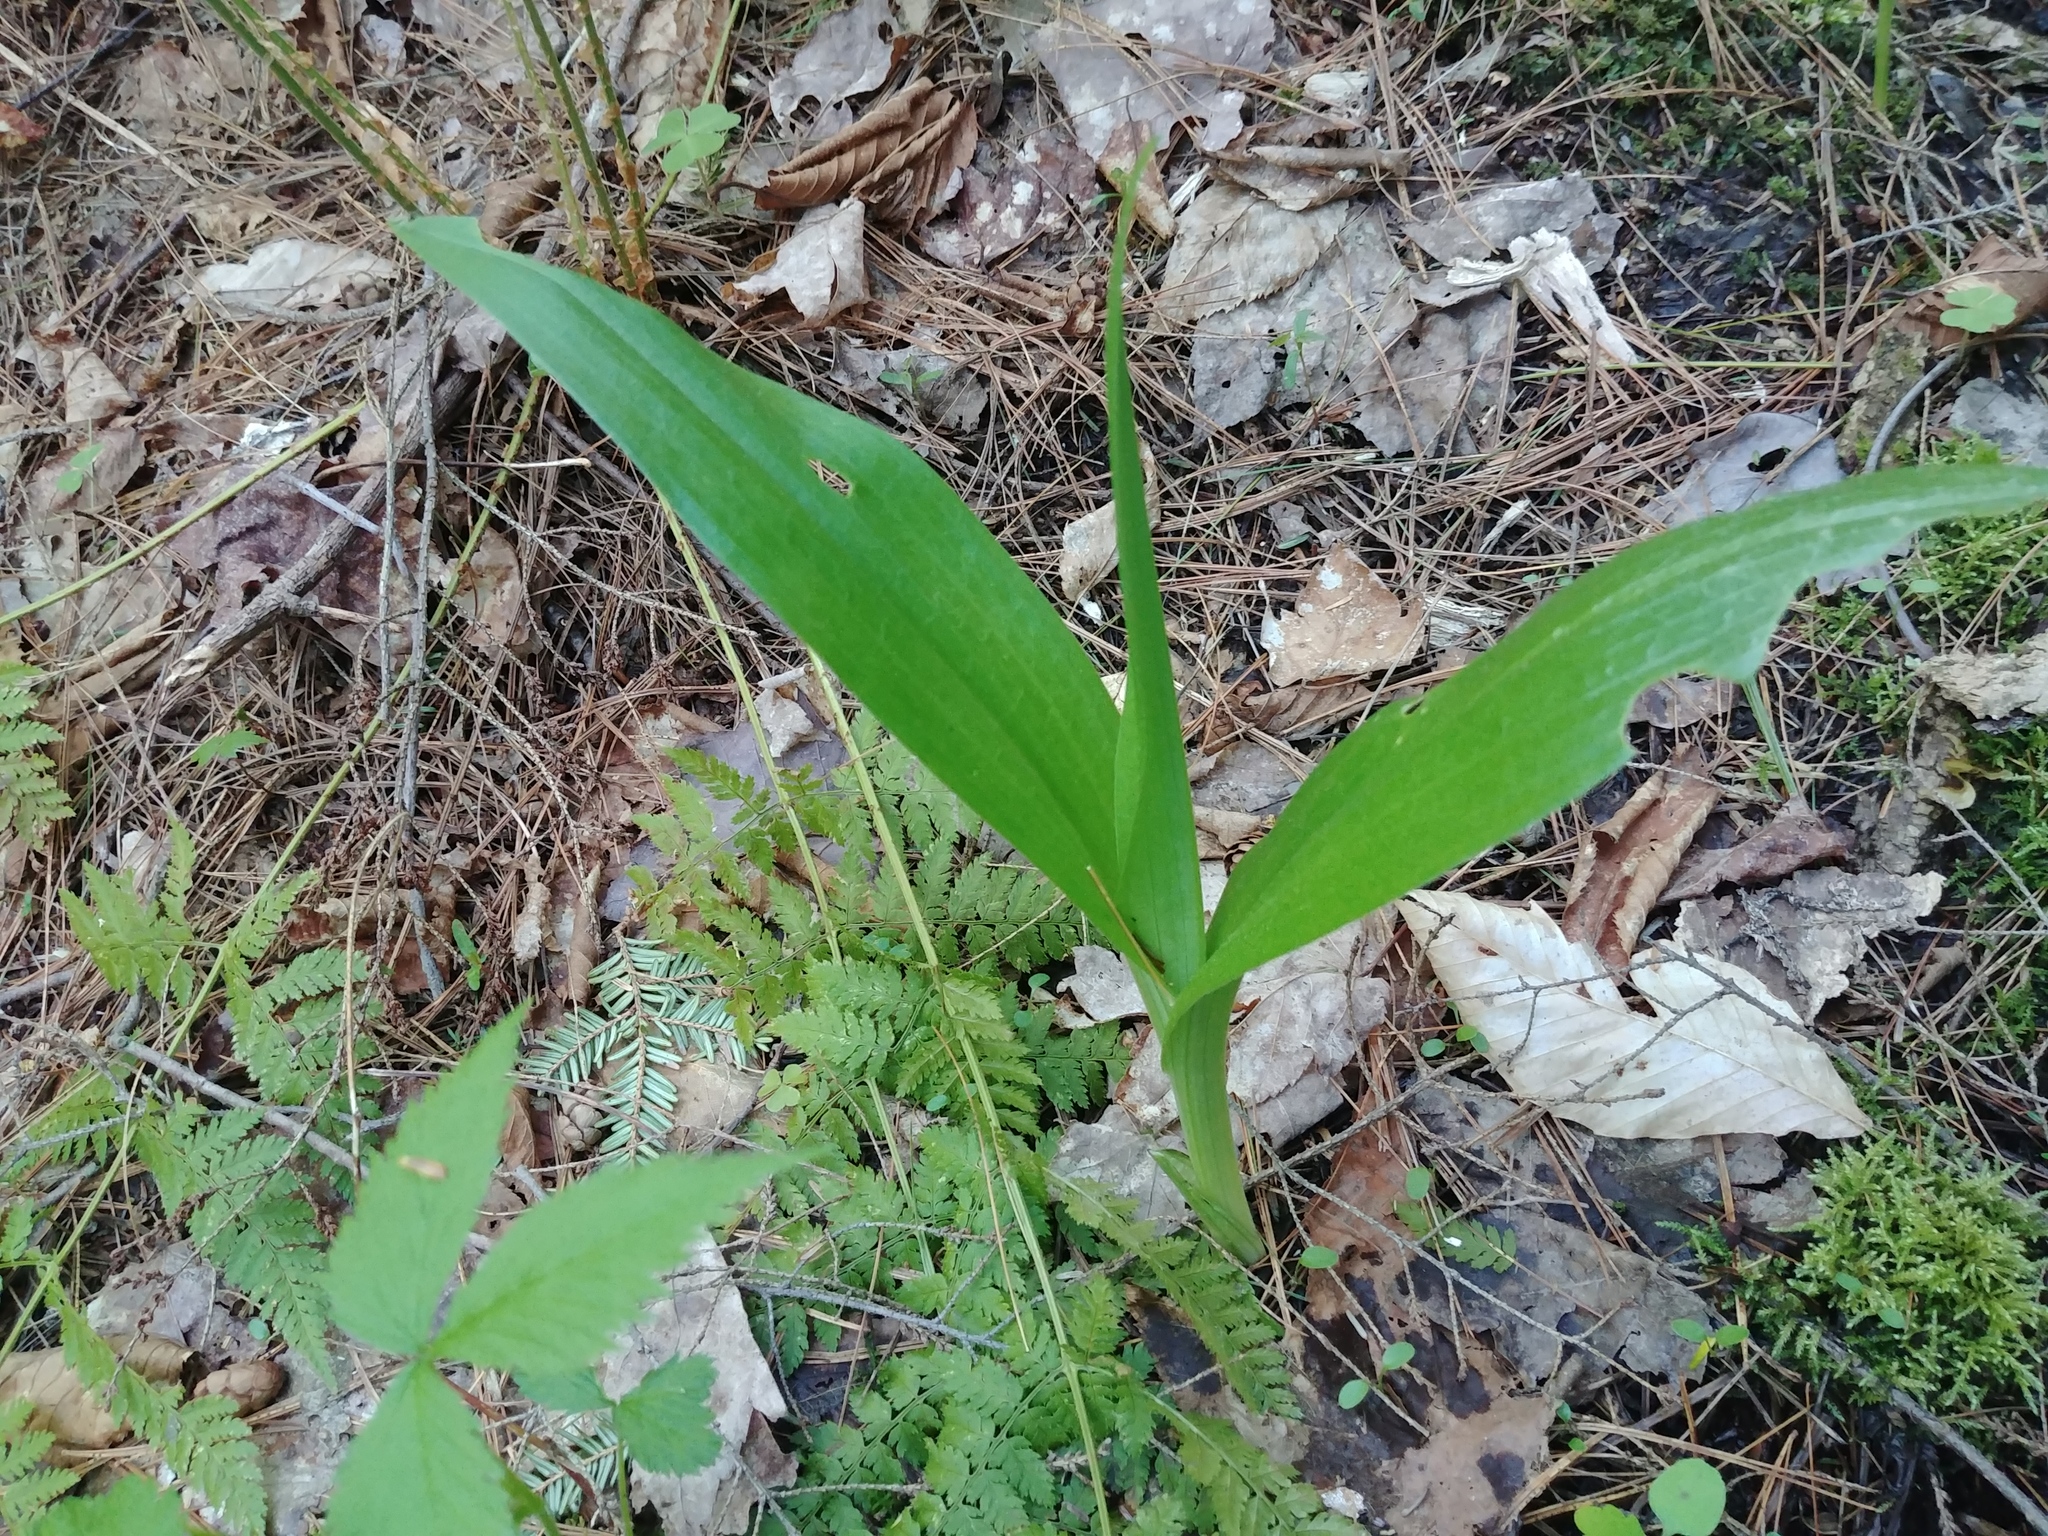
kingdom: Plantae
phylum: Tracheophyta
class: Liliopsida
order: Asparagales
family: Orchidaceae
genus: Platanthera
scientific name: Platanthera grandiflora
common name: Greater purple fringed orchid
